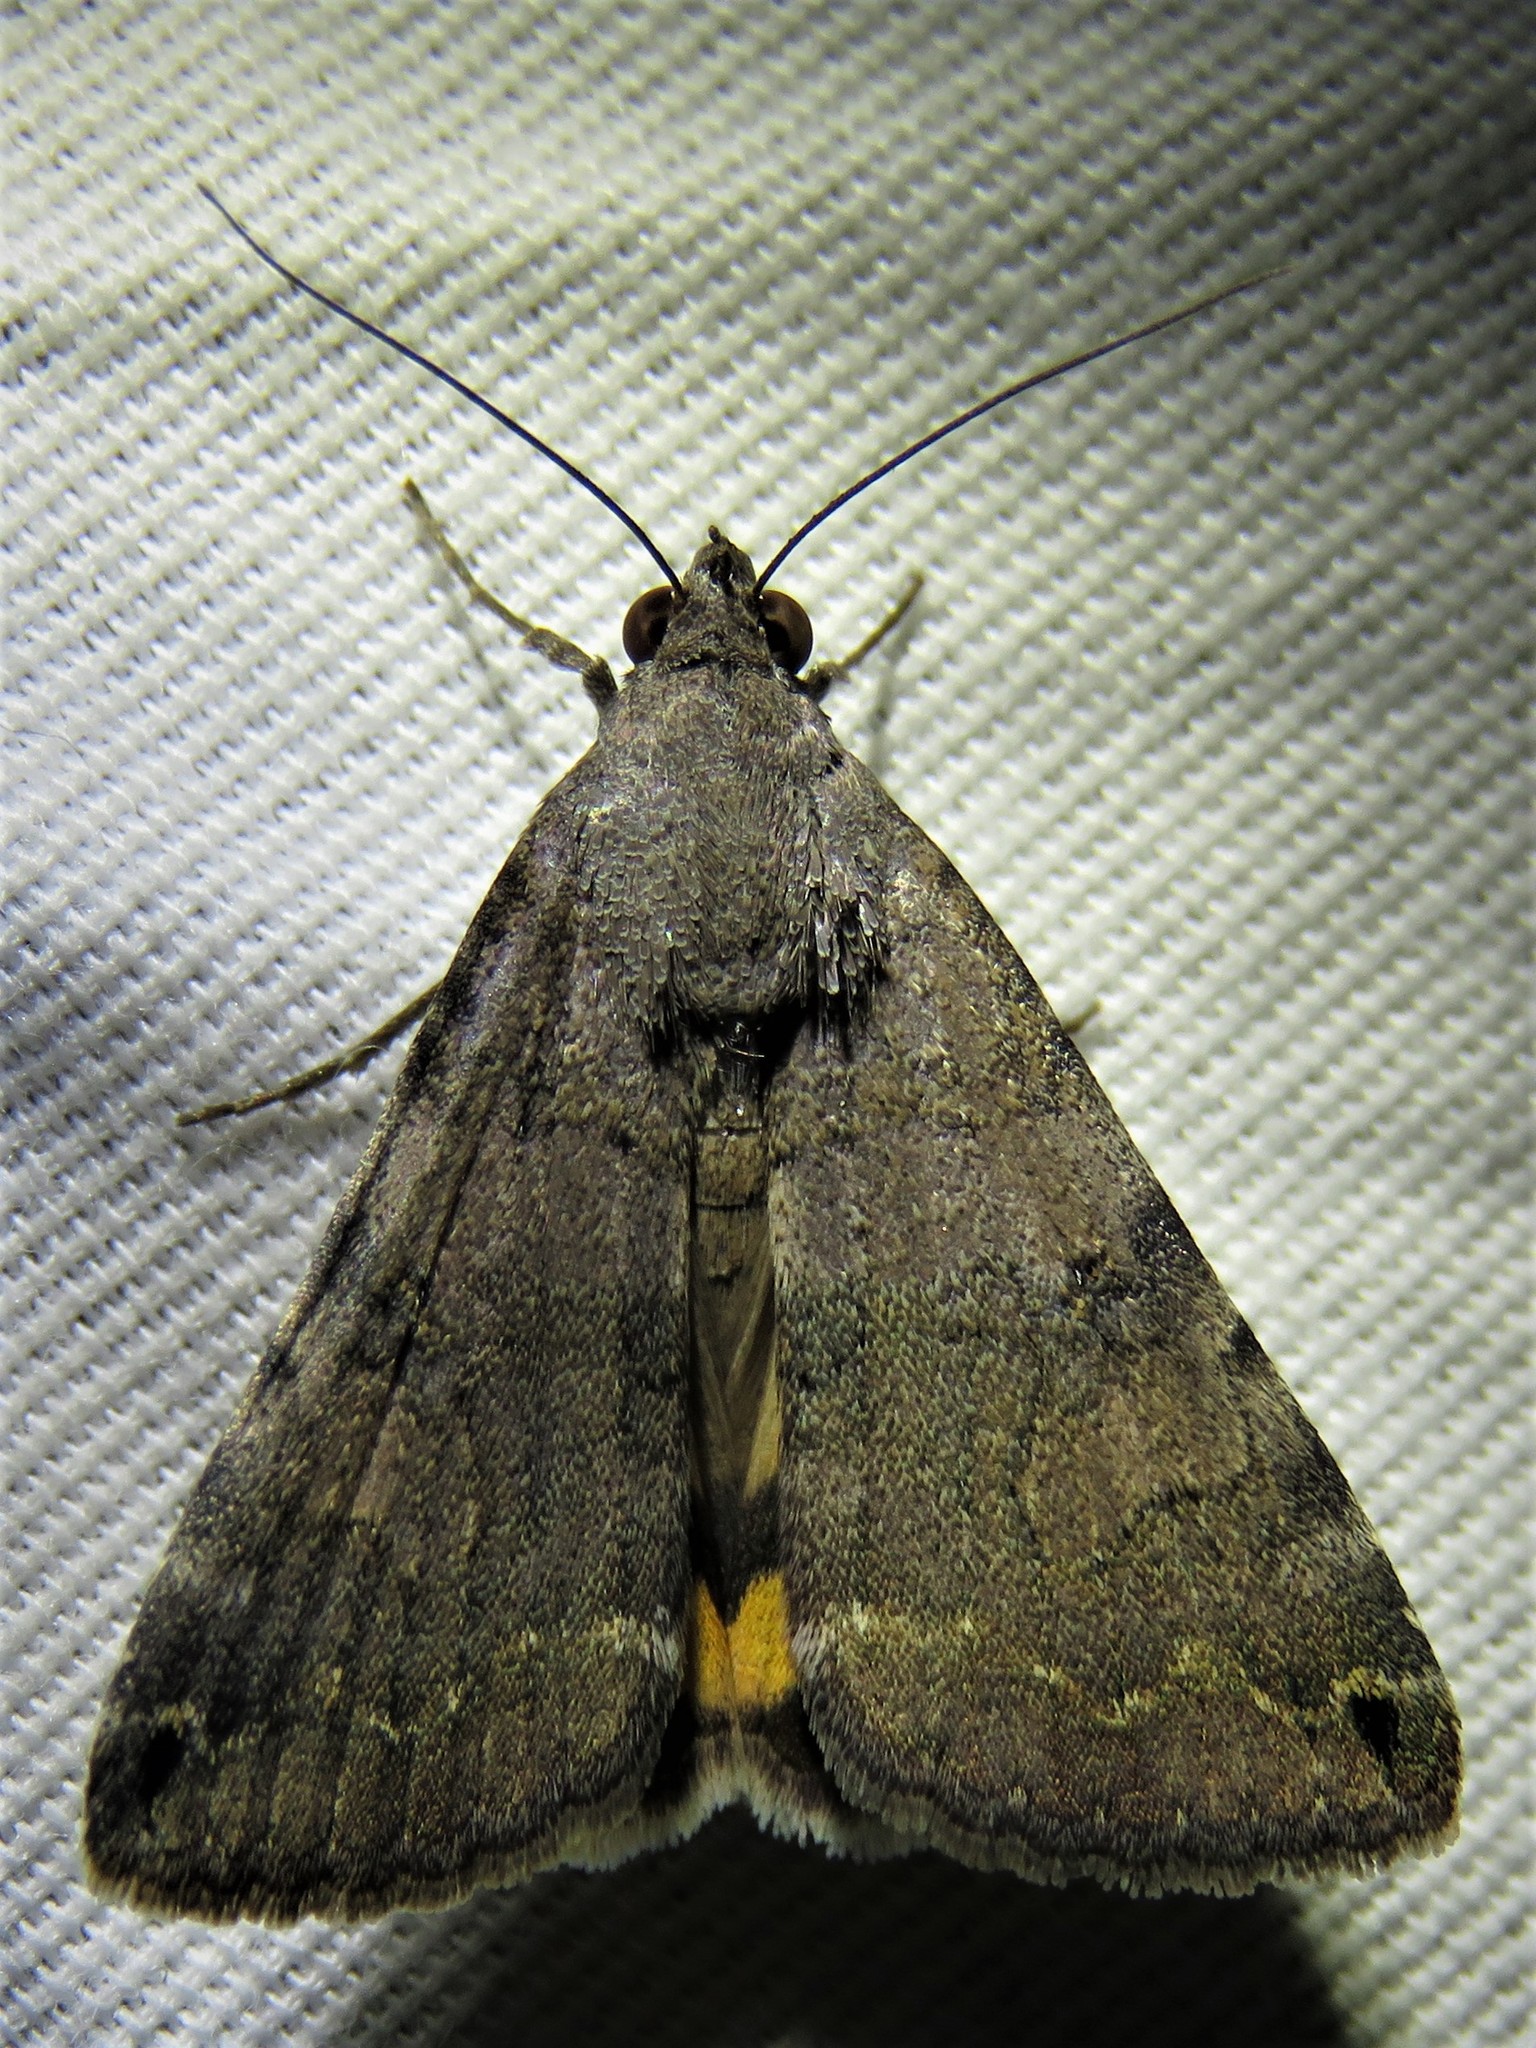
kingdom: Animalia
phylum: Arthropoda
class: Insecta
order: Lepidoptera
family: Erebidae
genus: Bulia
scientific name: Bulia deducta
